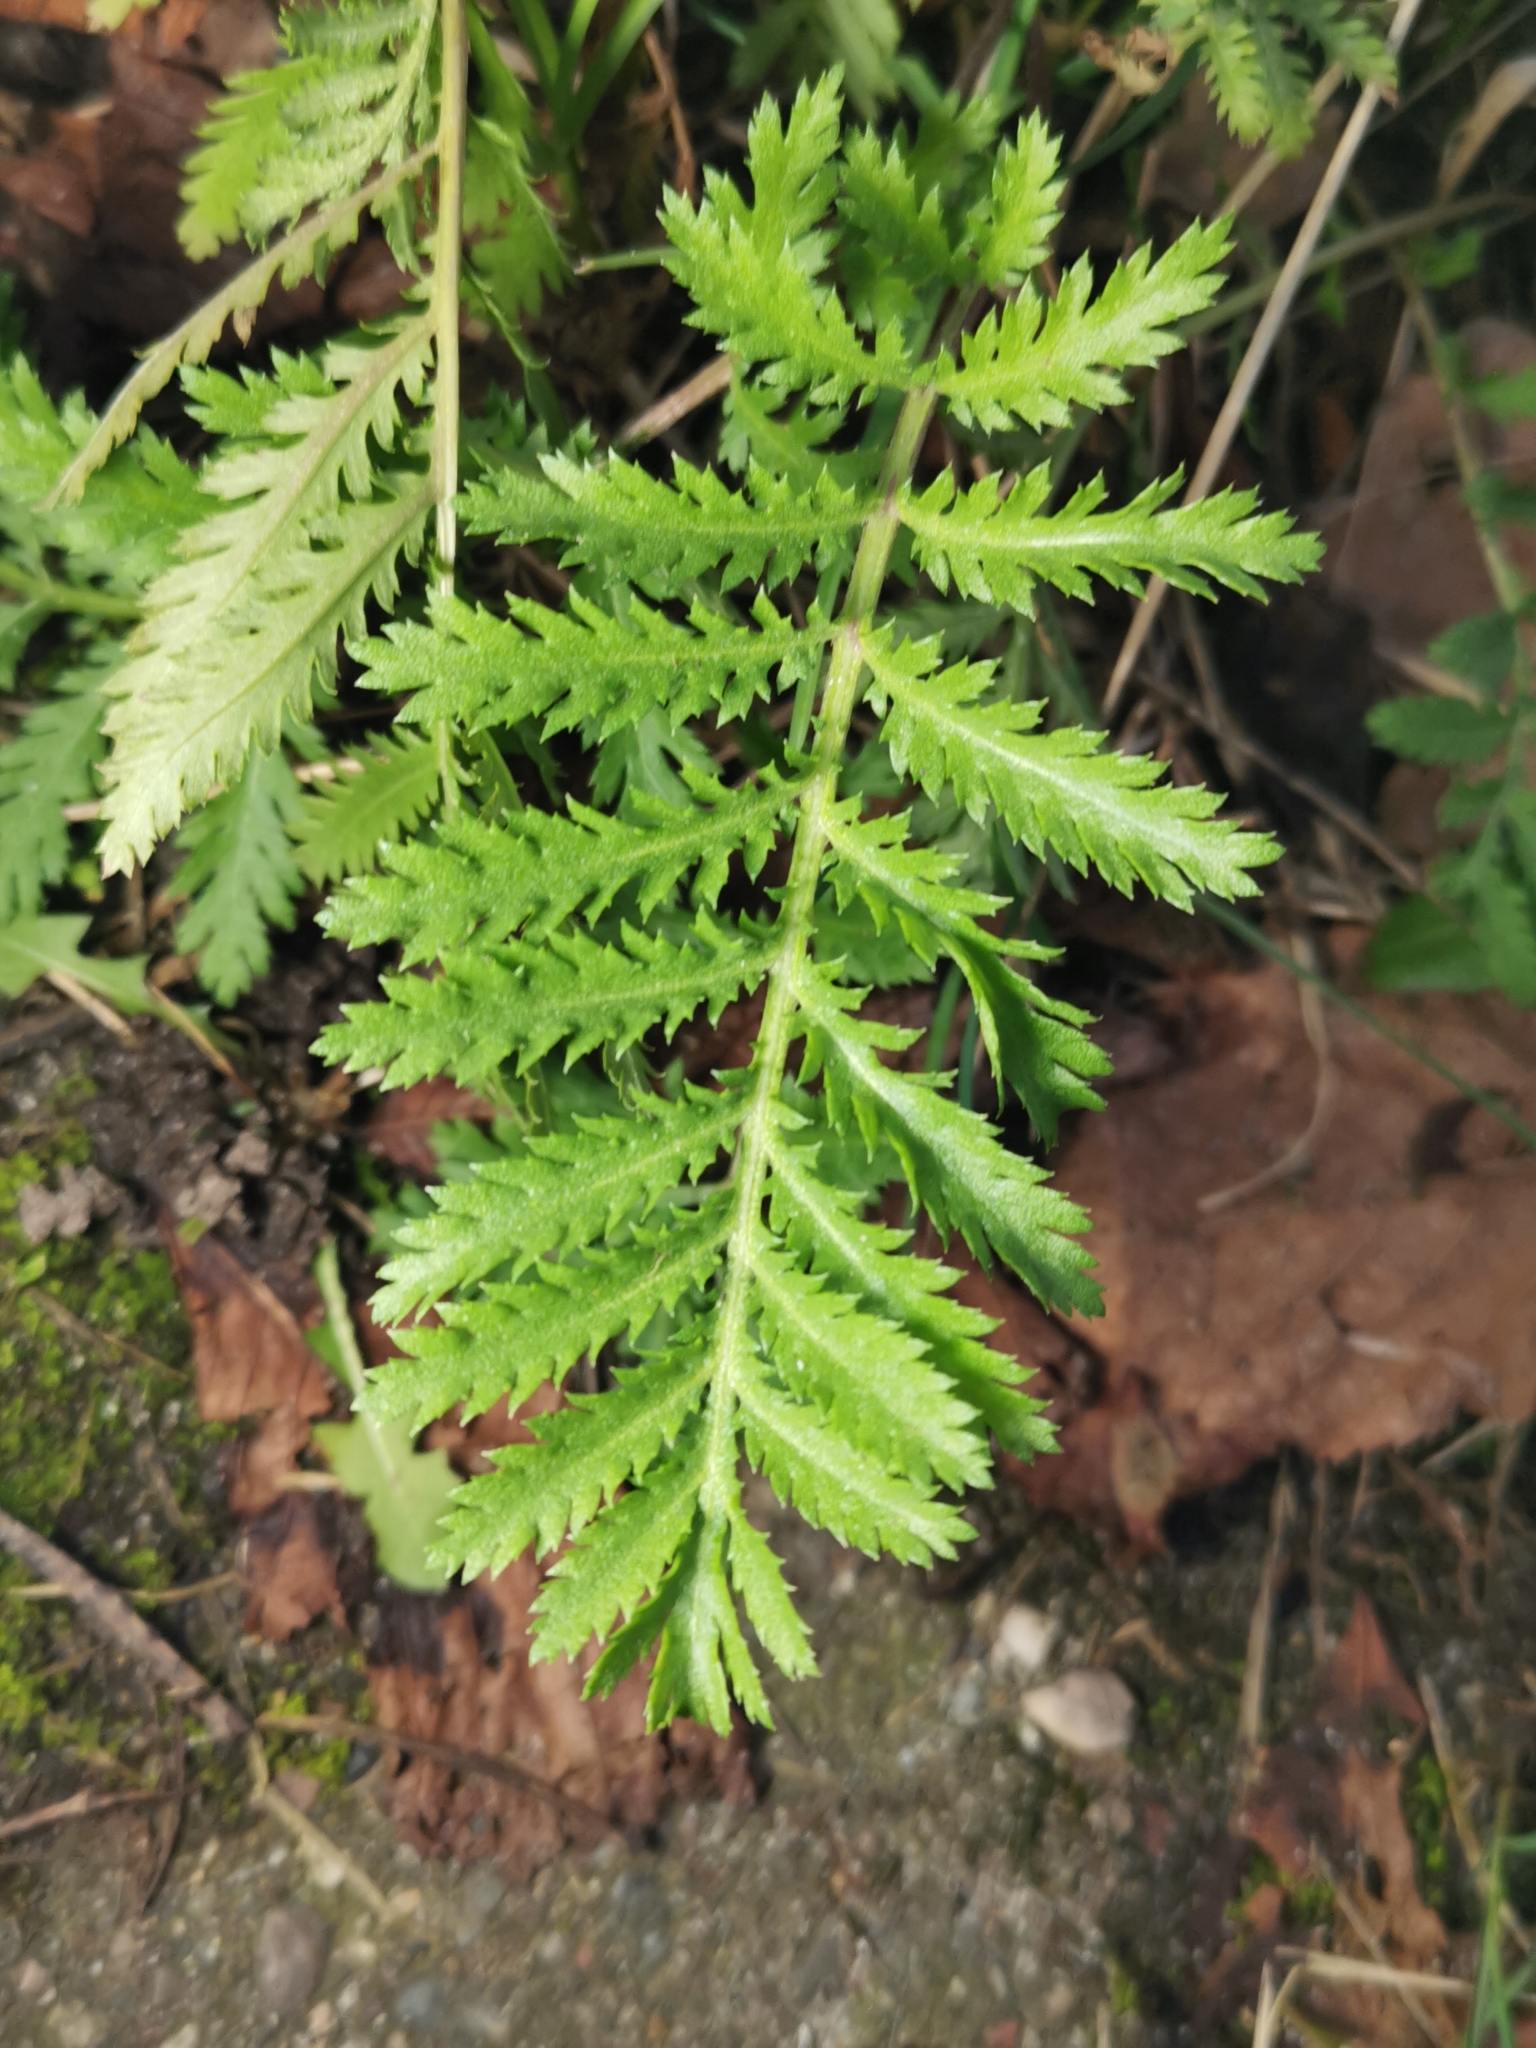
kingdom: Plantae
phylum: Tracheophyta
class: Magnoliopsida
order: Asterales
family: Asteraceae
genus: Tanacetum
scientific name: Tanacetum vulgare
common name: Common tansy
